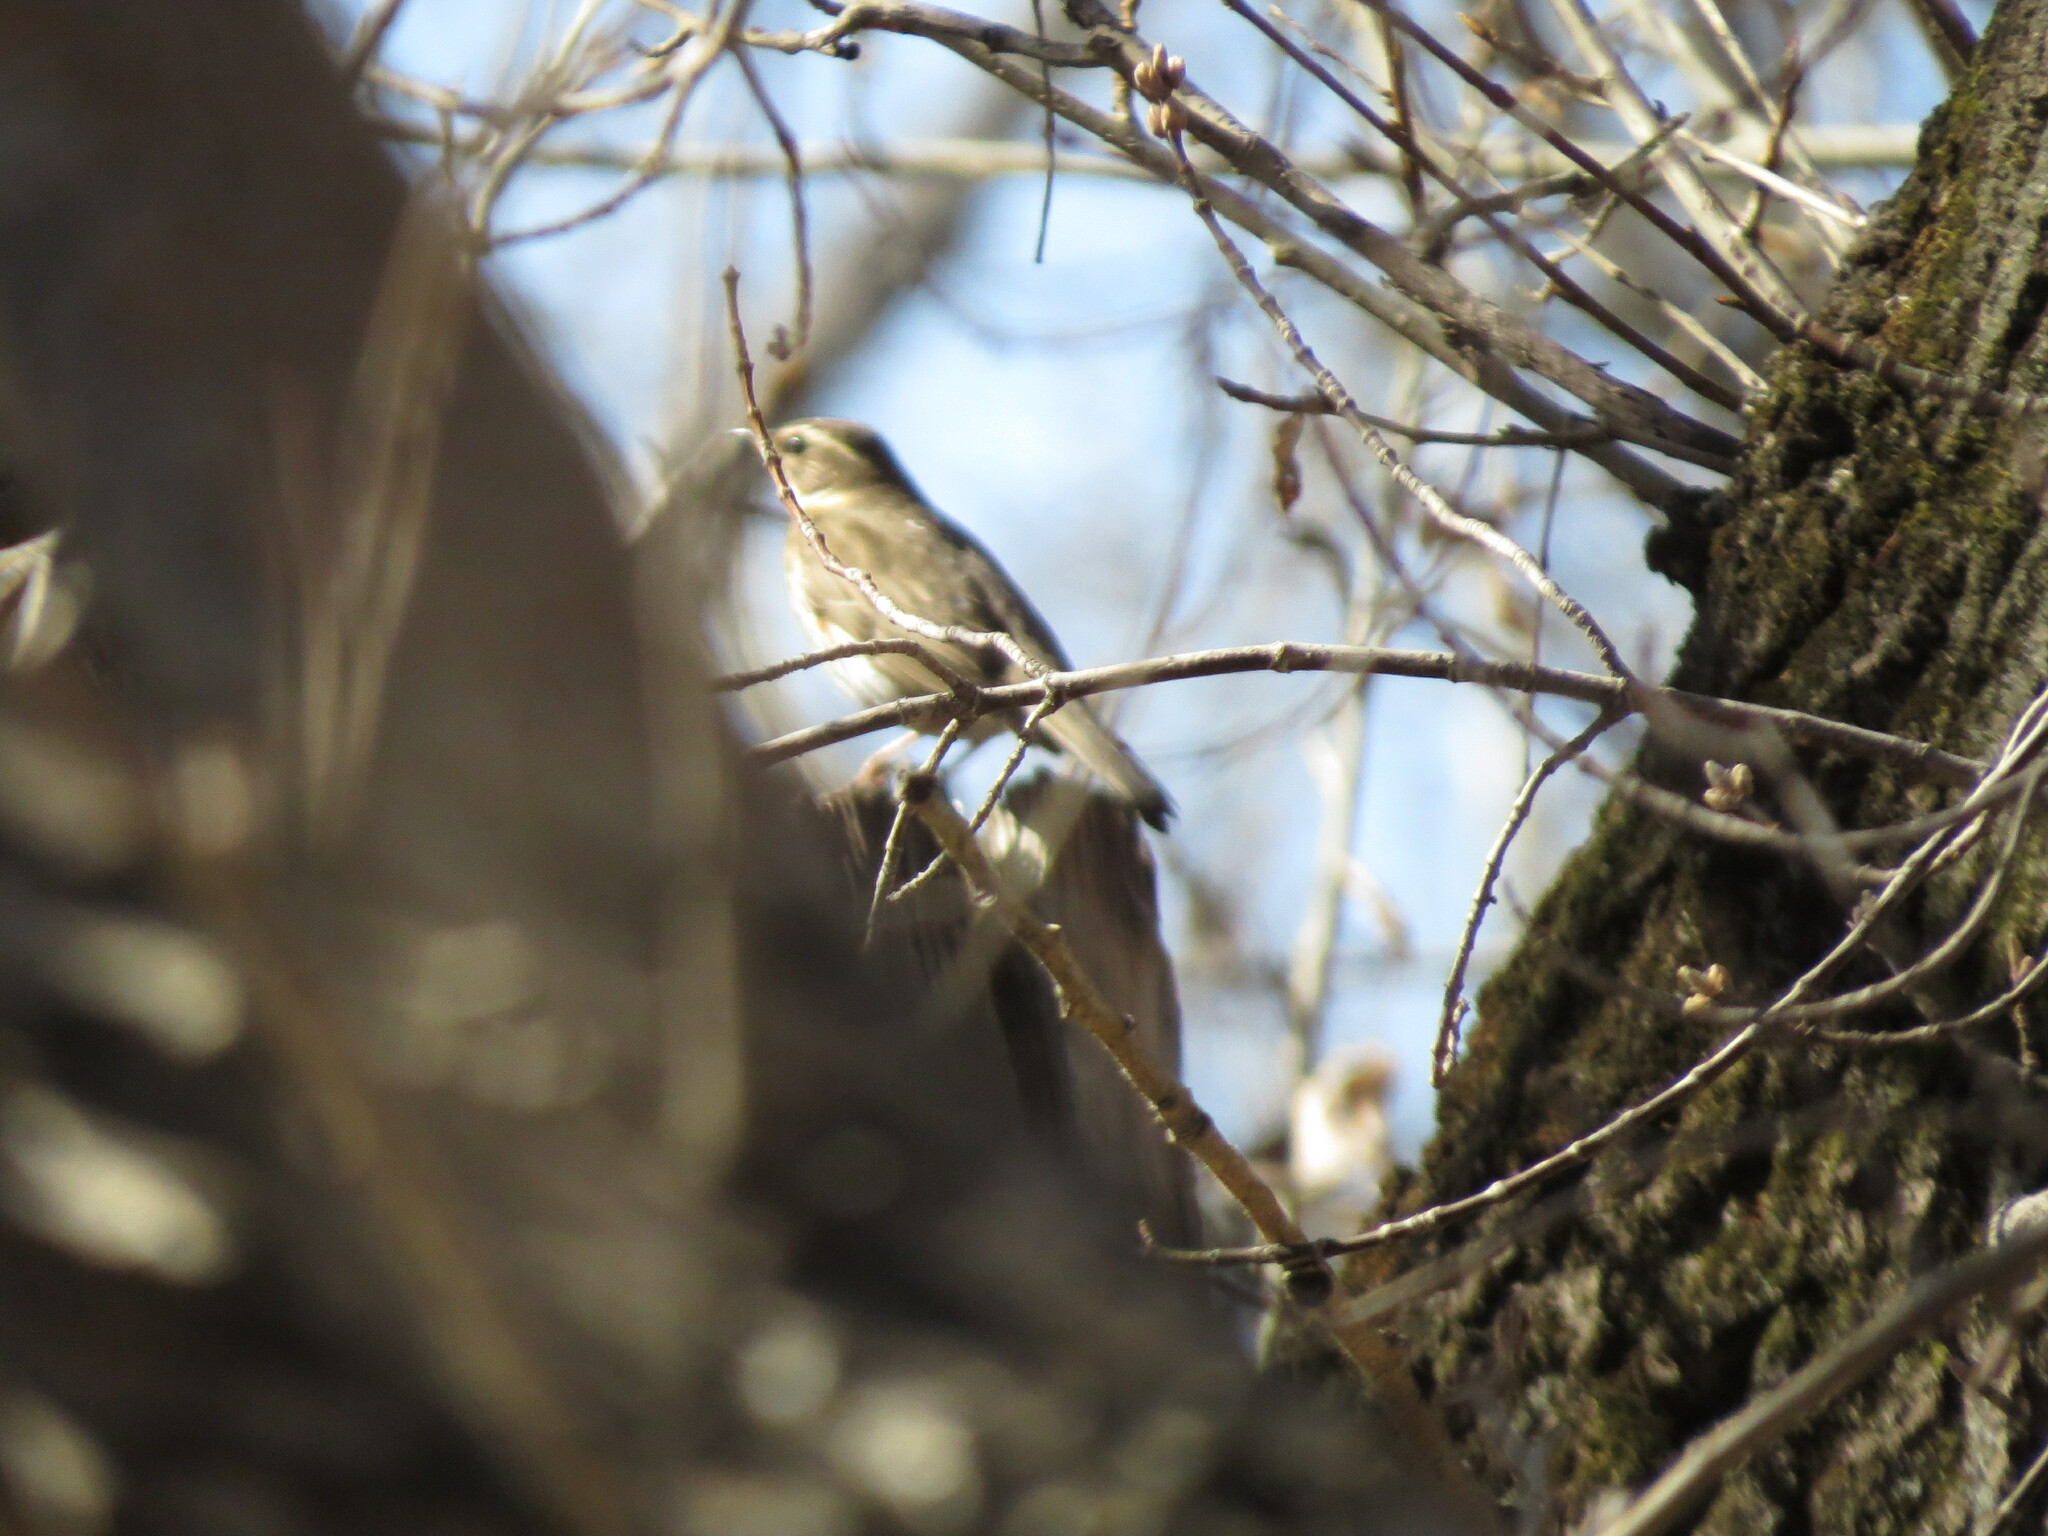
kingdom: Animalia
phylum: Chordata
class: Aves
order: Passeriformes
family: Turdidae
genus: Turdus
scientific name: Turdus iliacus
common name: Redwing
